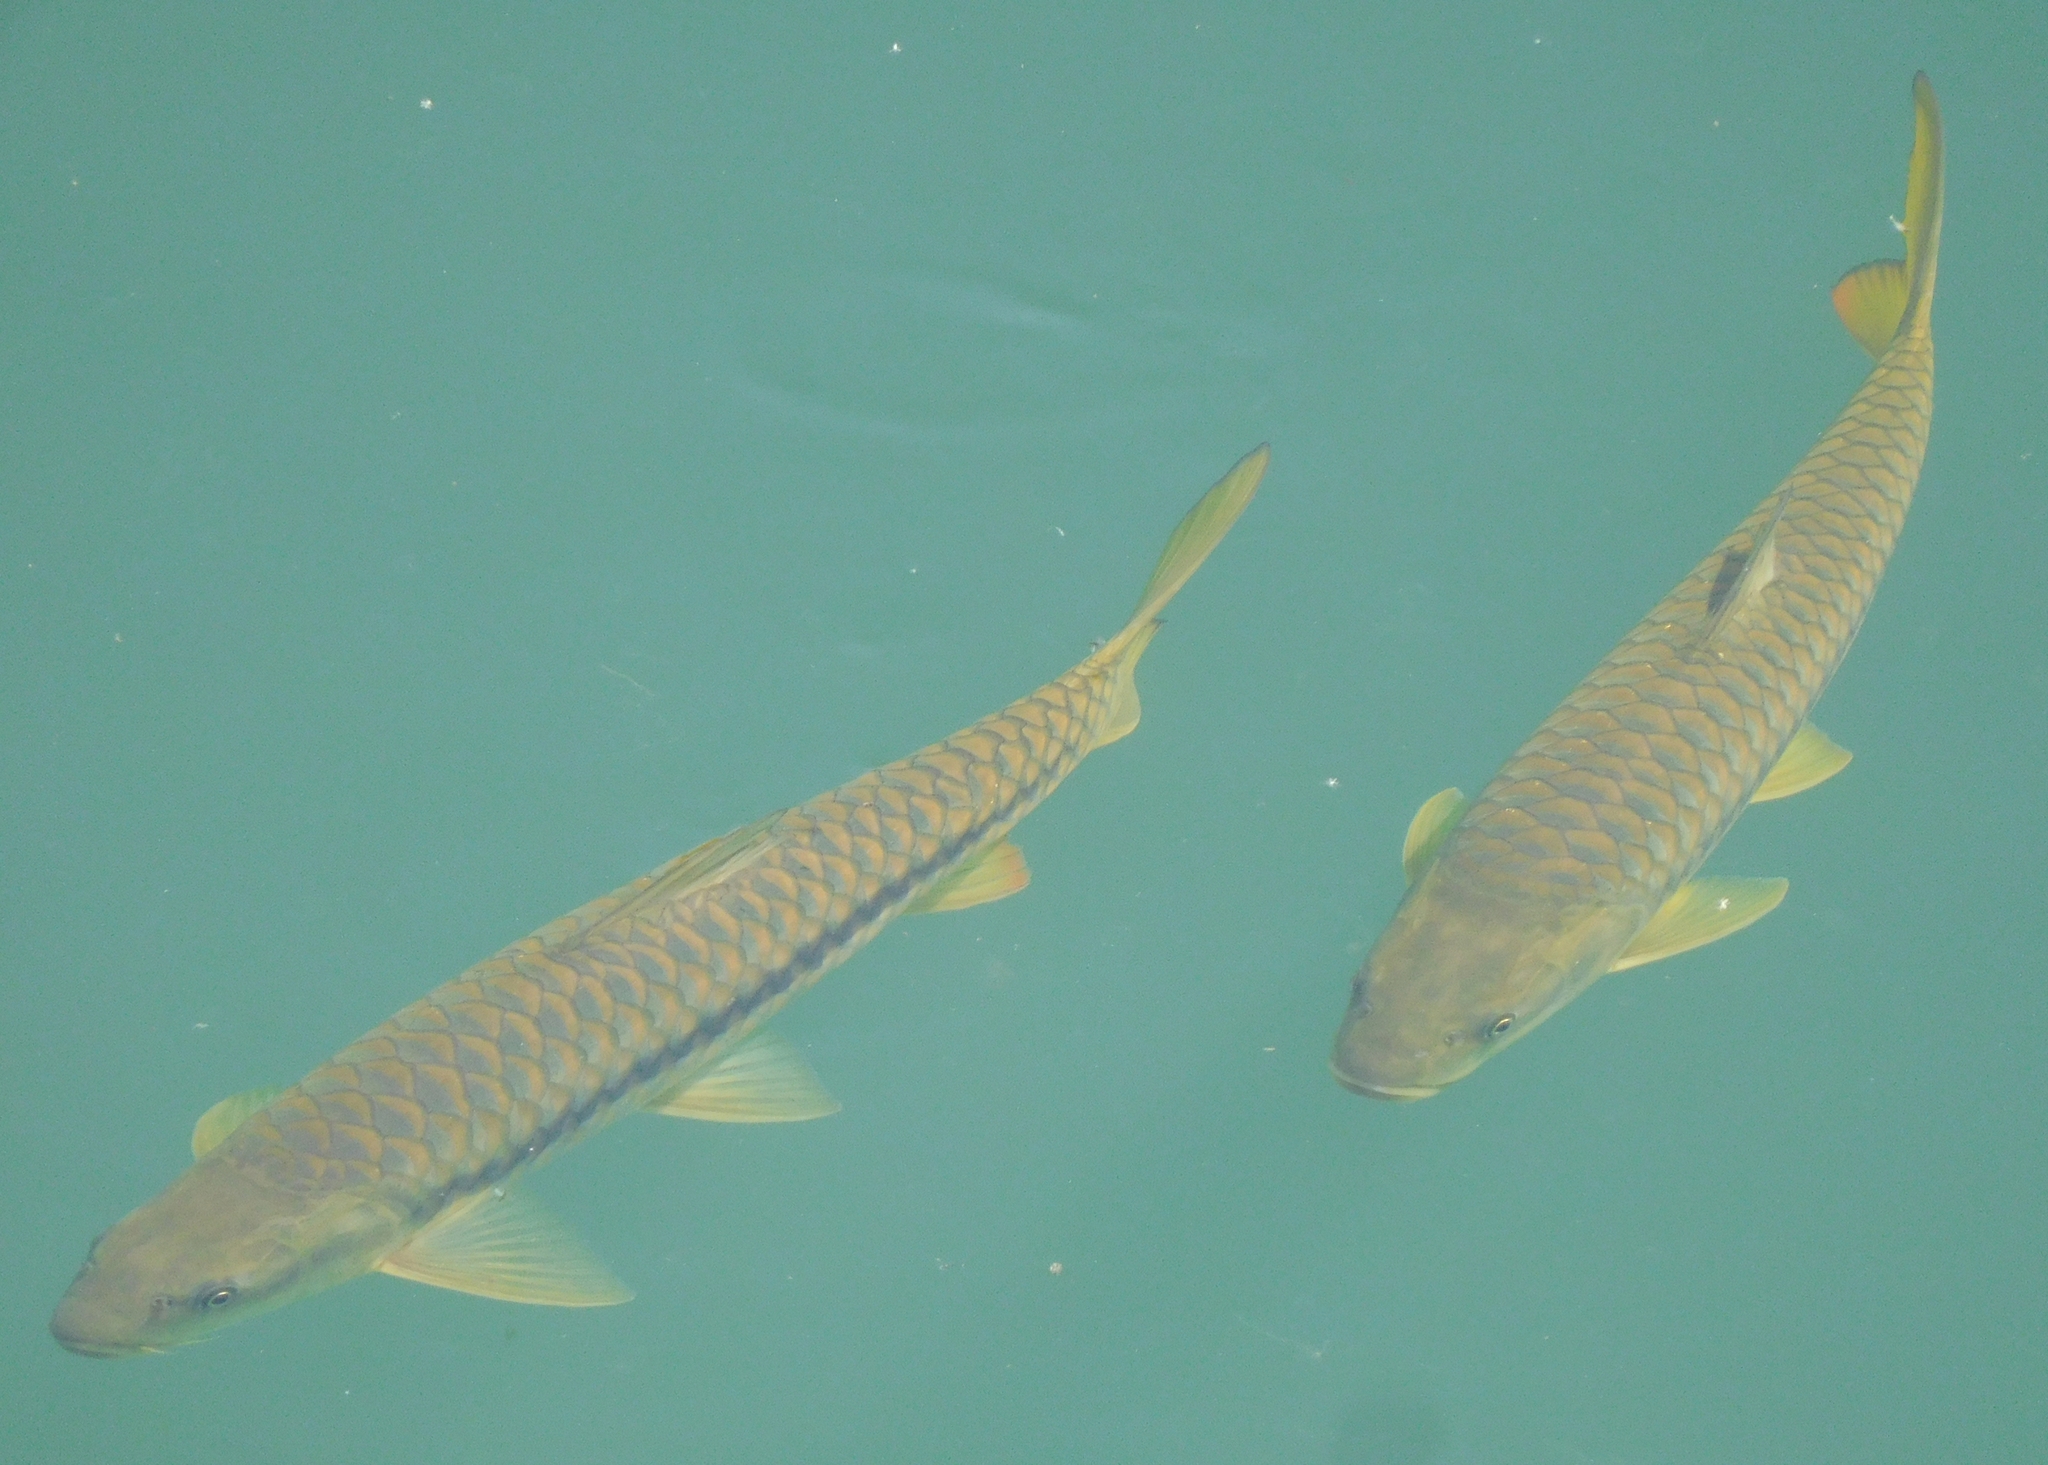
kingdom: Animalia
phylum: Chordata
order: Cypriniformes
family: Cyprinidae
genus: Tor
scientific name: Tor putitora
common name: Putitor mahseer
